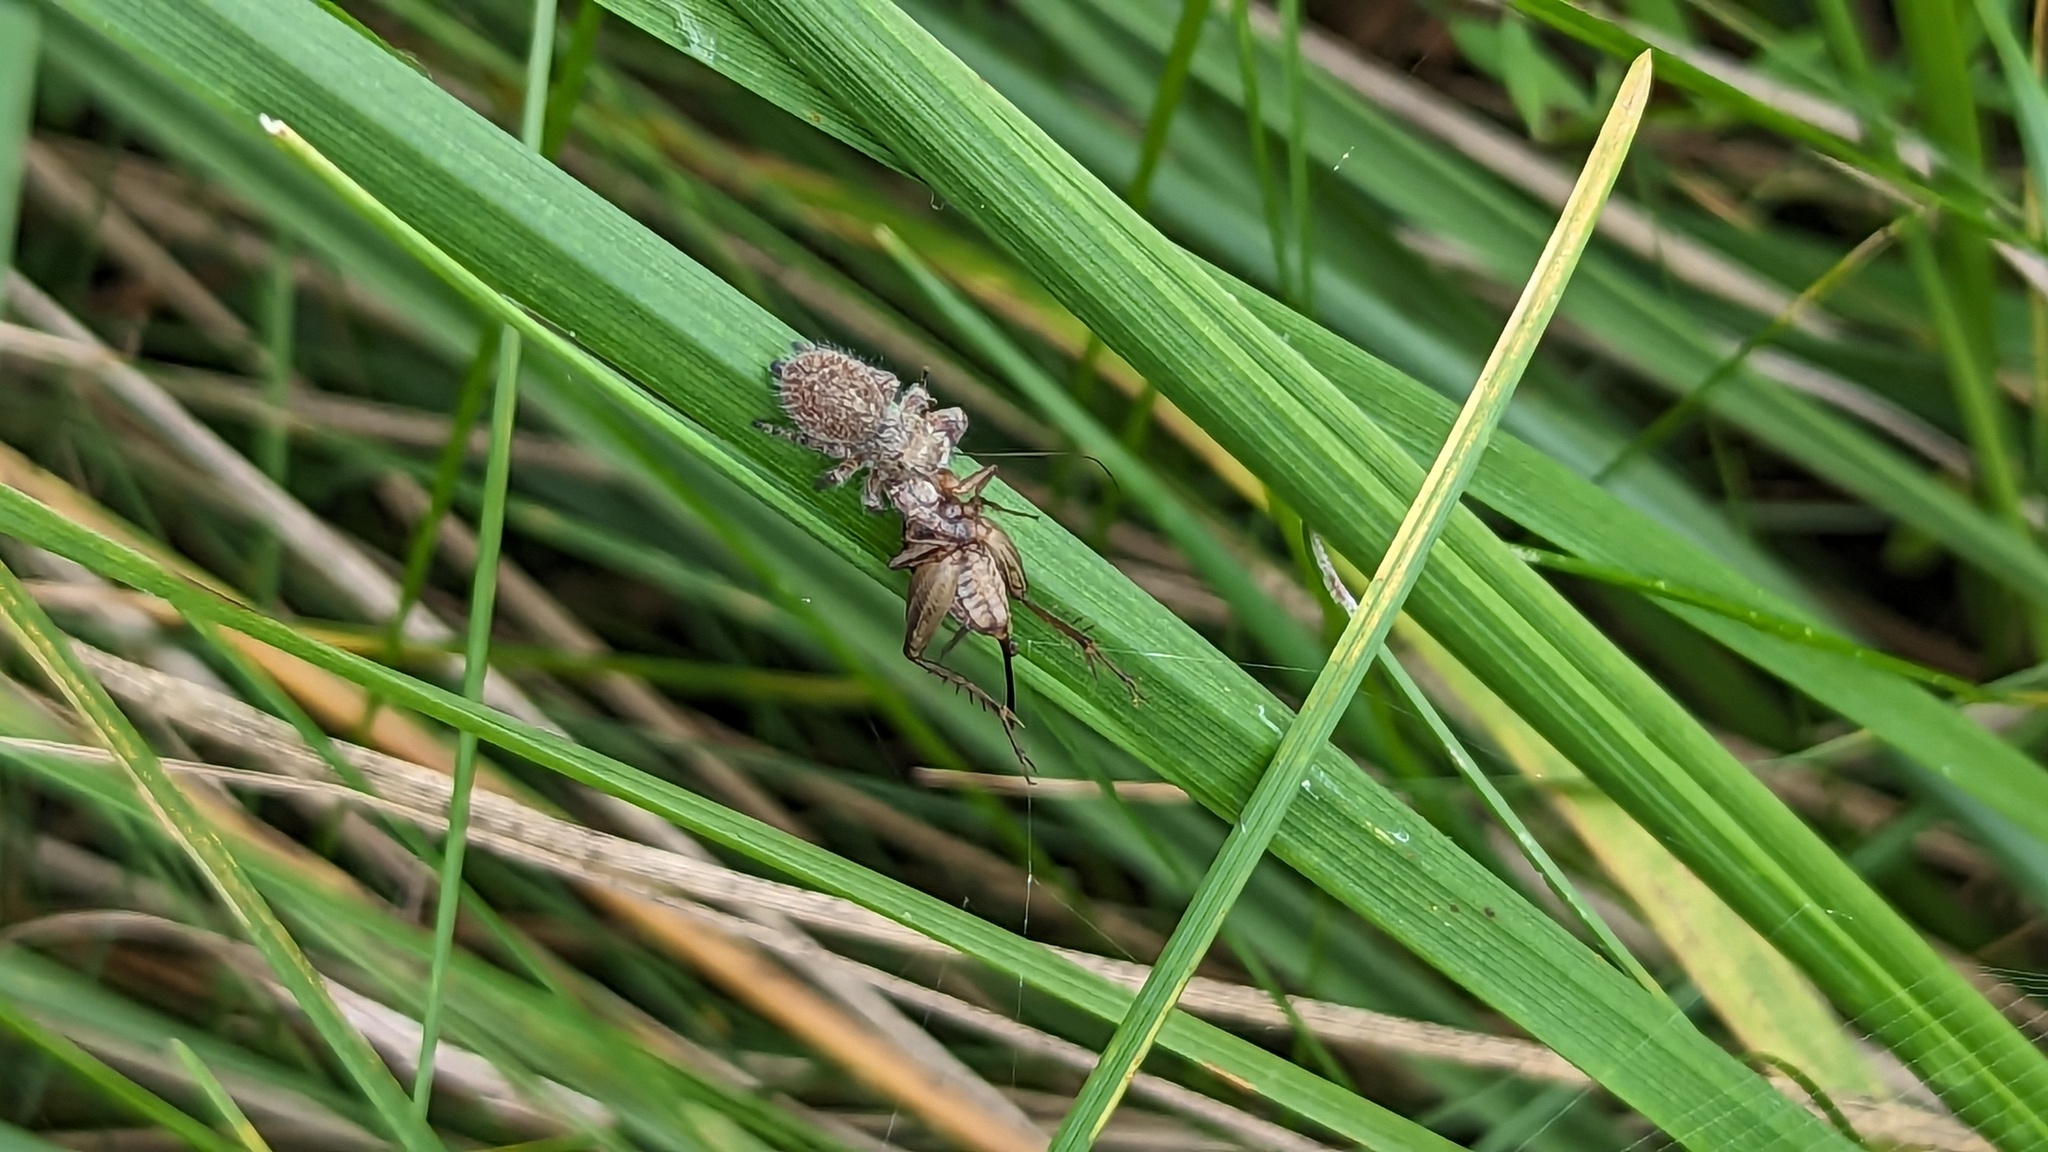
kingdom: Animalia
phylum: Arthropoda
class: Arachnida
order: Araneae
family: Salticidae
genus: Phidippus
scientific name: Phidippus princeps
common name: Grayish jumping spider
